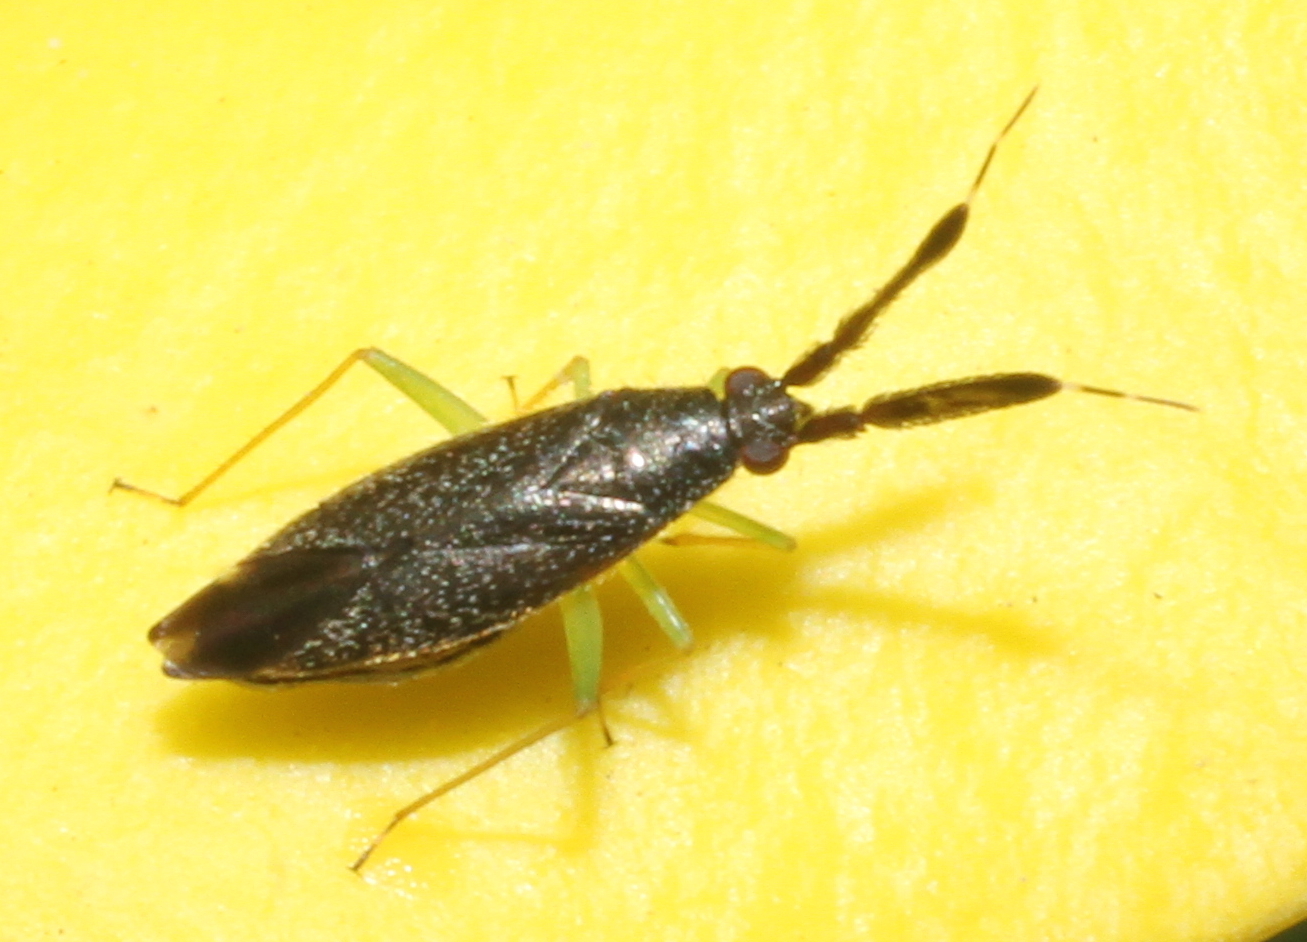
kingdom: Animalia
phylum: Arthropoda
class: Insecta
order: Hemiptera
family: Miridae
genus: Heterotoma
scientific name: Heterotoma planicornis
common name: Plant bug
